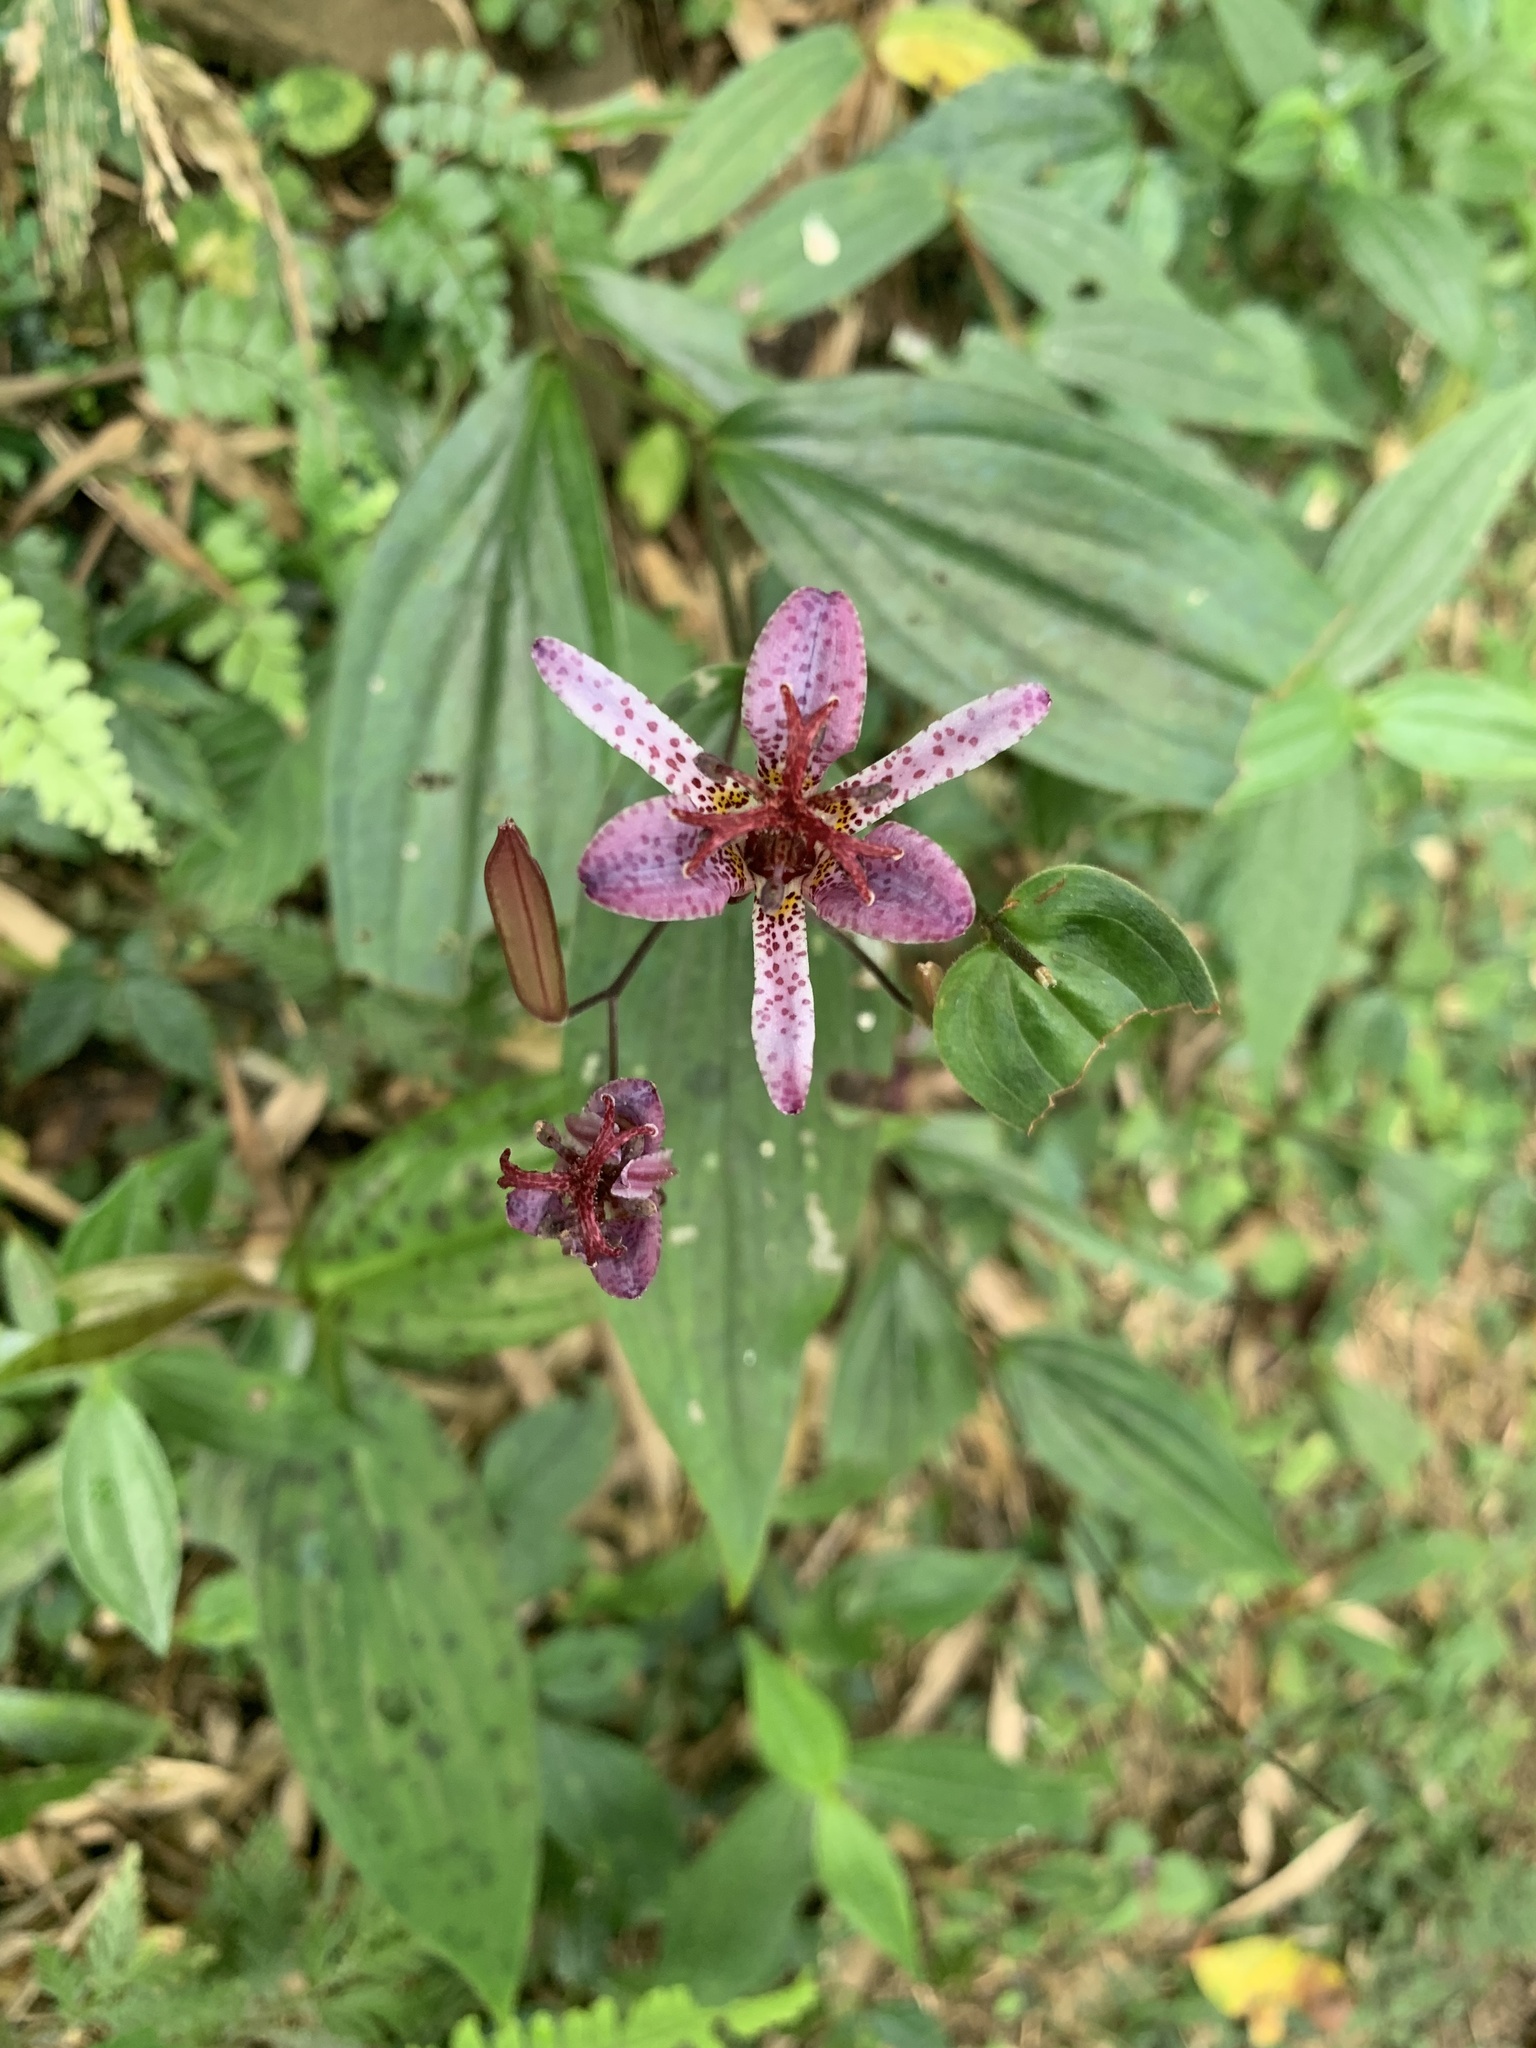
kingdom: Plantae
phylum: Tracheophyta
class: Liliopsida
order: Liliales
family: Liliaceae
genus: Tricyrtis
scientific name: Tricyrtis formosana
